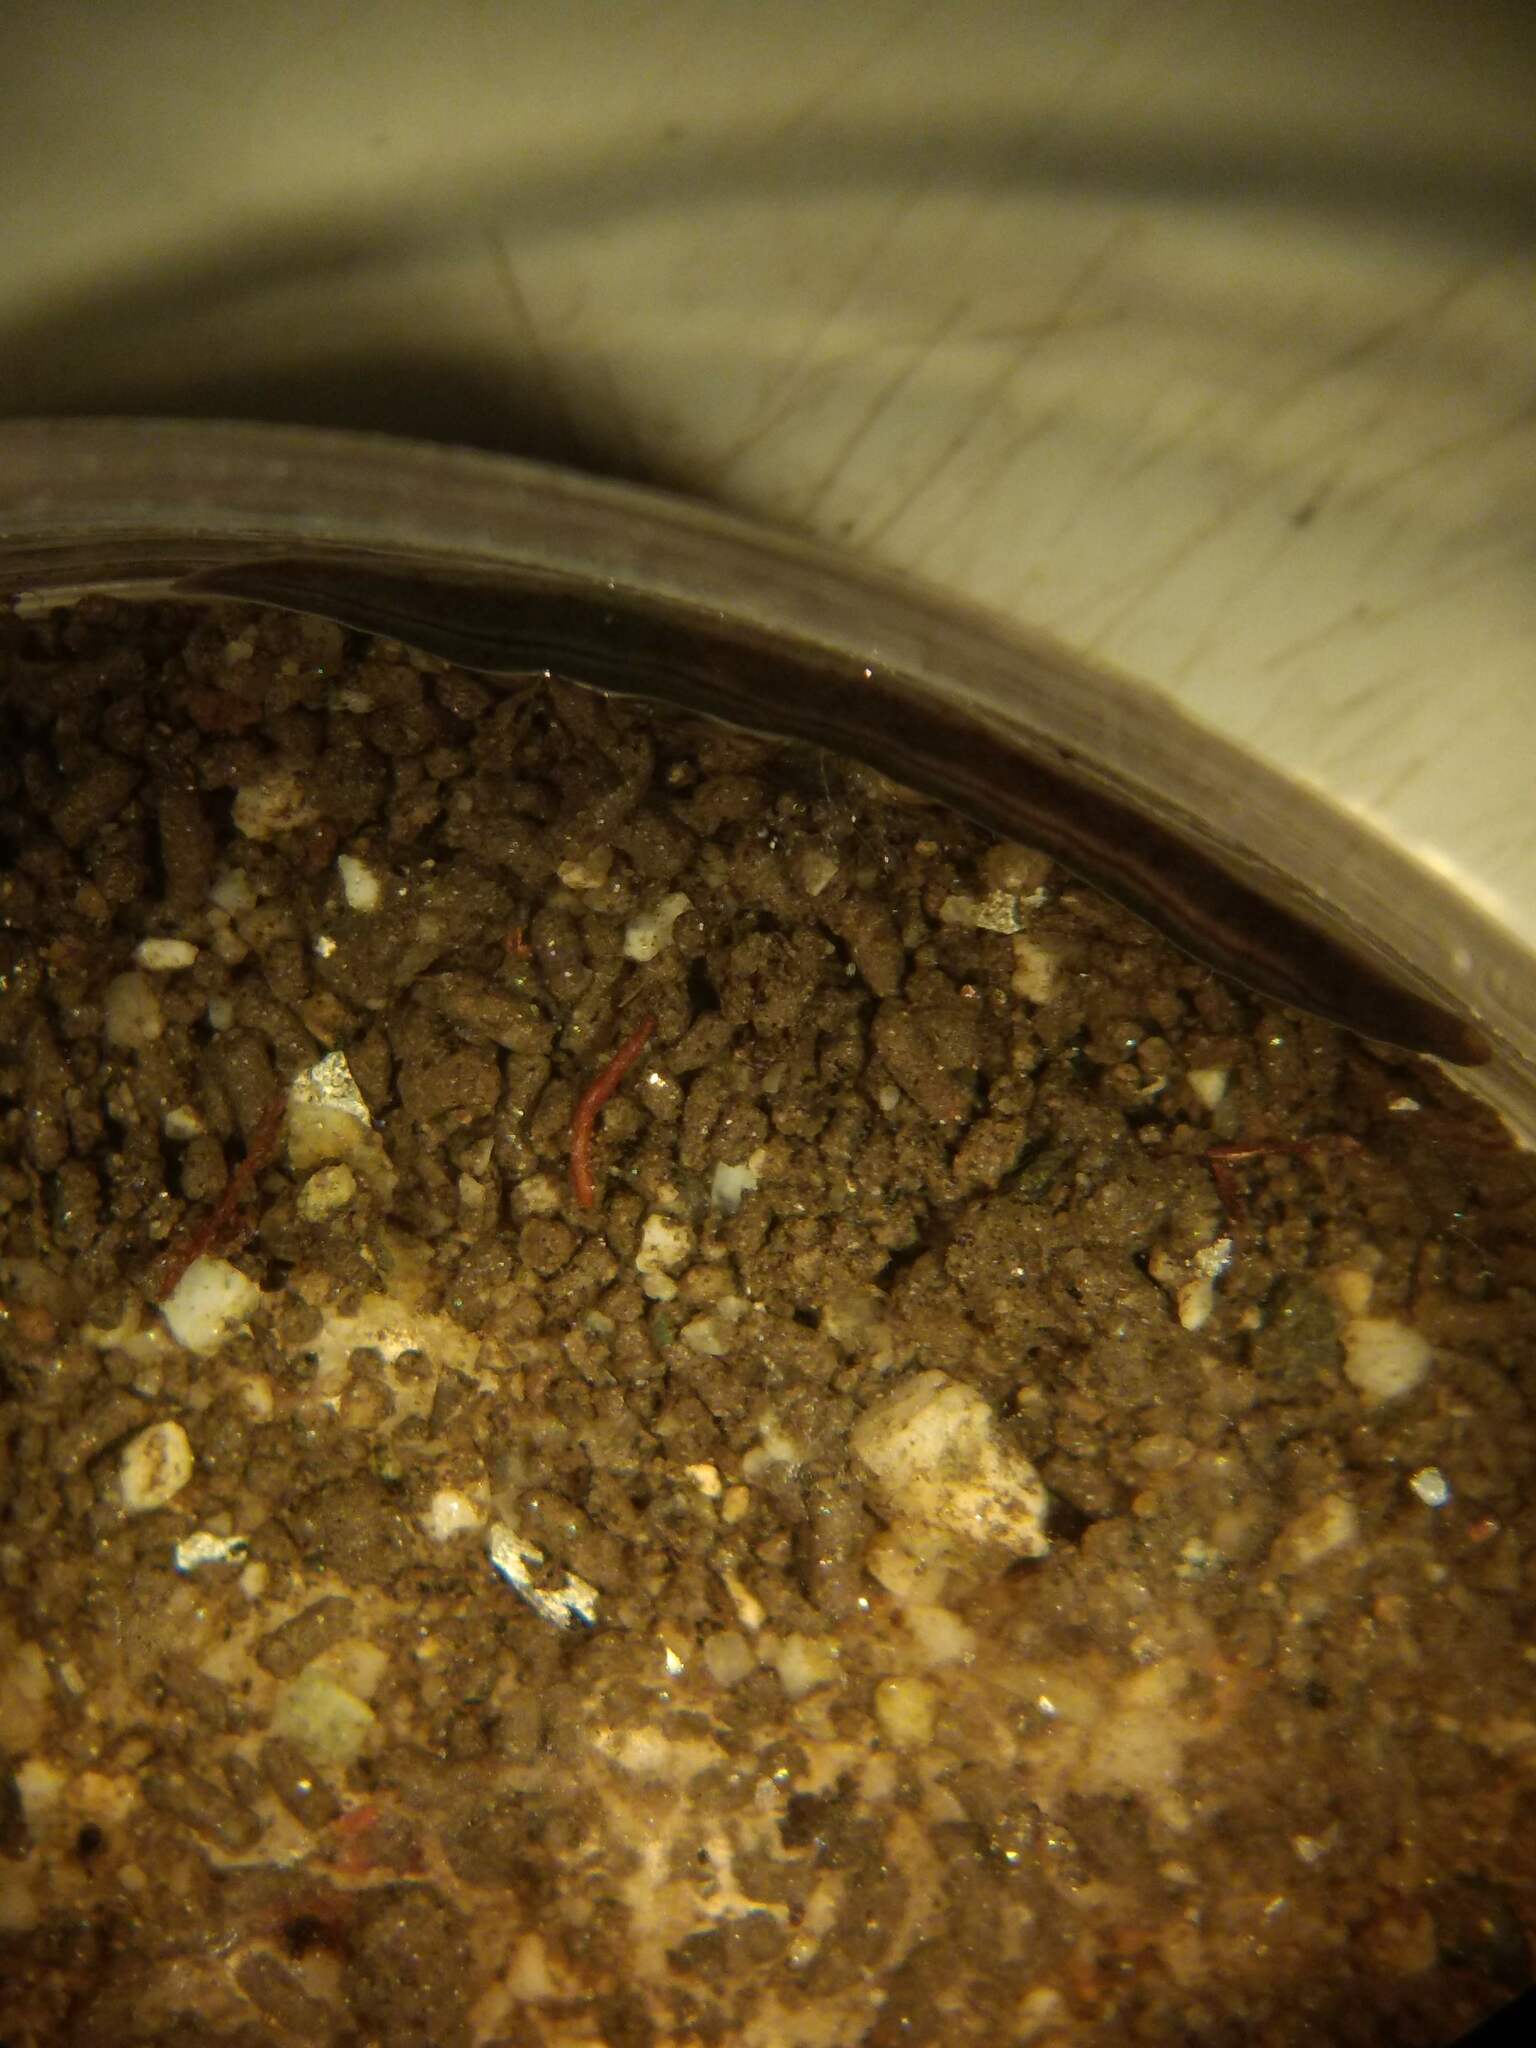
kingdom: Animalia
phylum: Platyhelminthes
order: Tricladida
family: Geoplanidae
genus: Parakontikia
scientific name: Parakontikia ventrolineata
